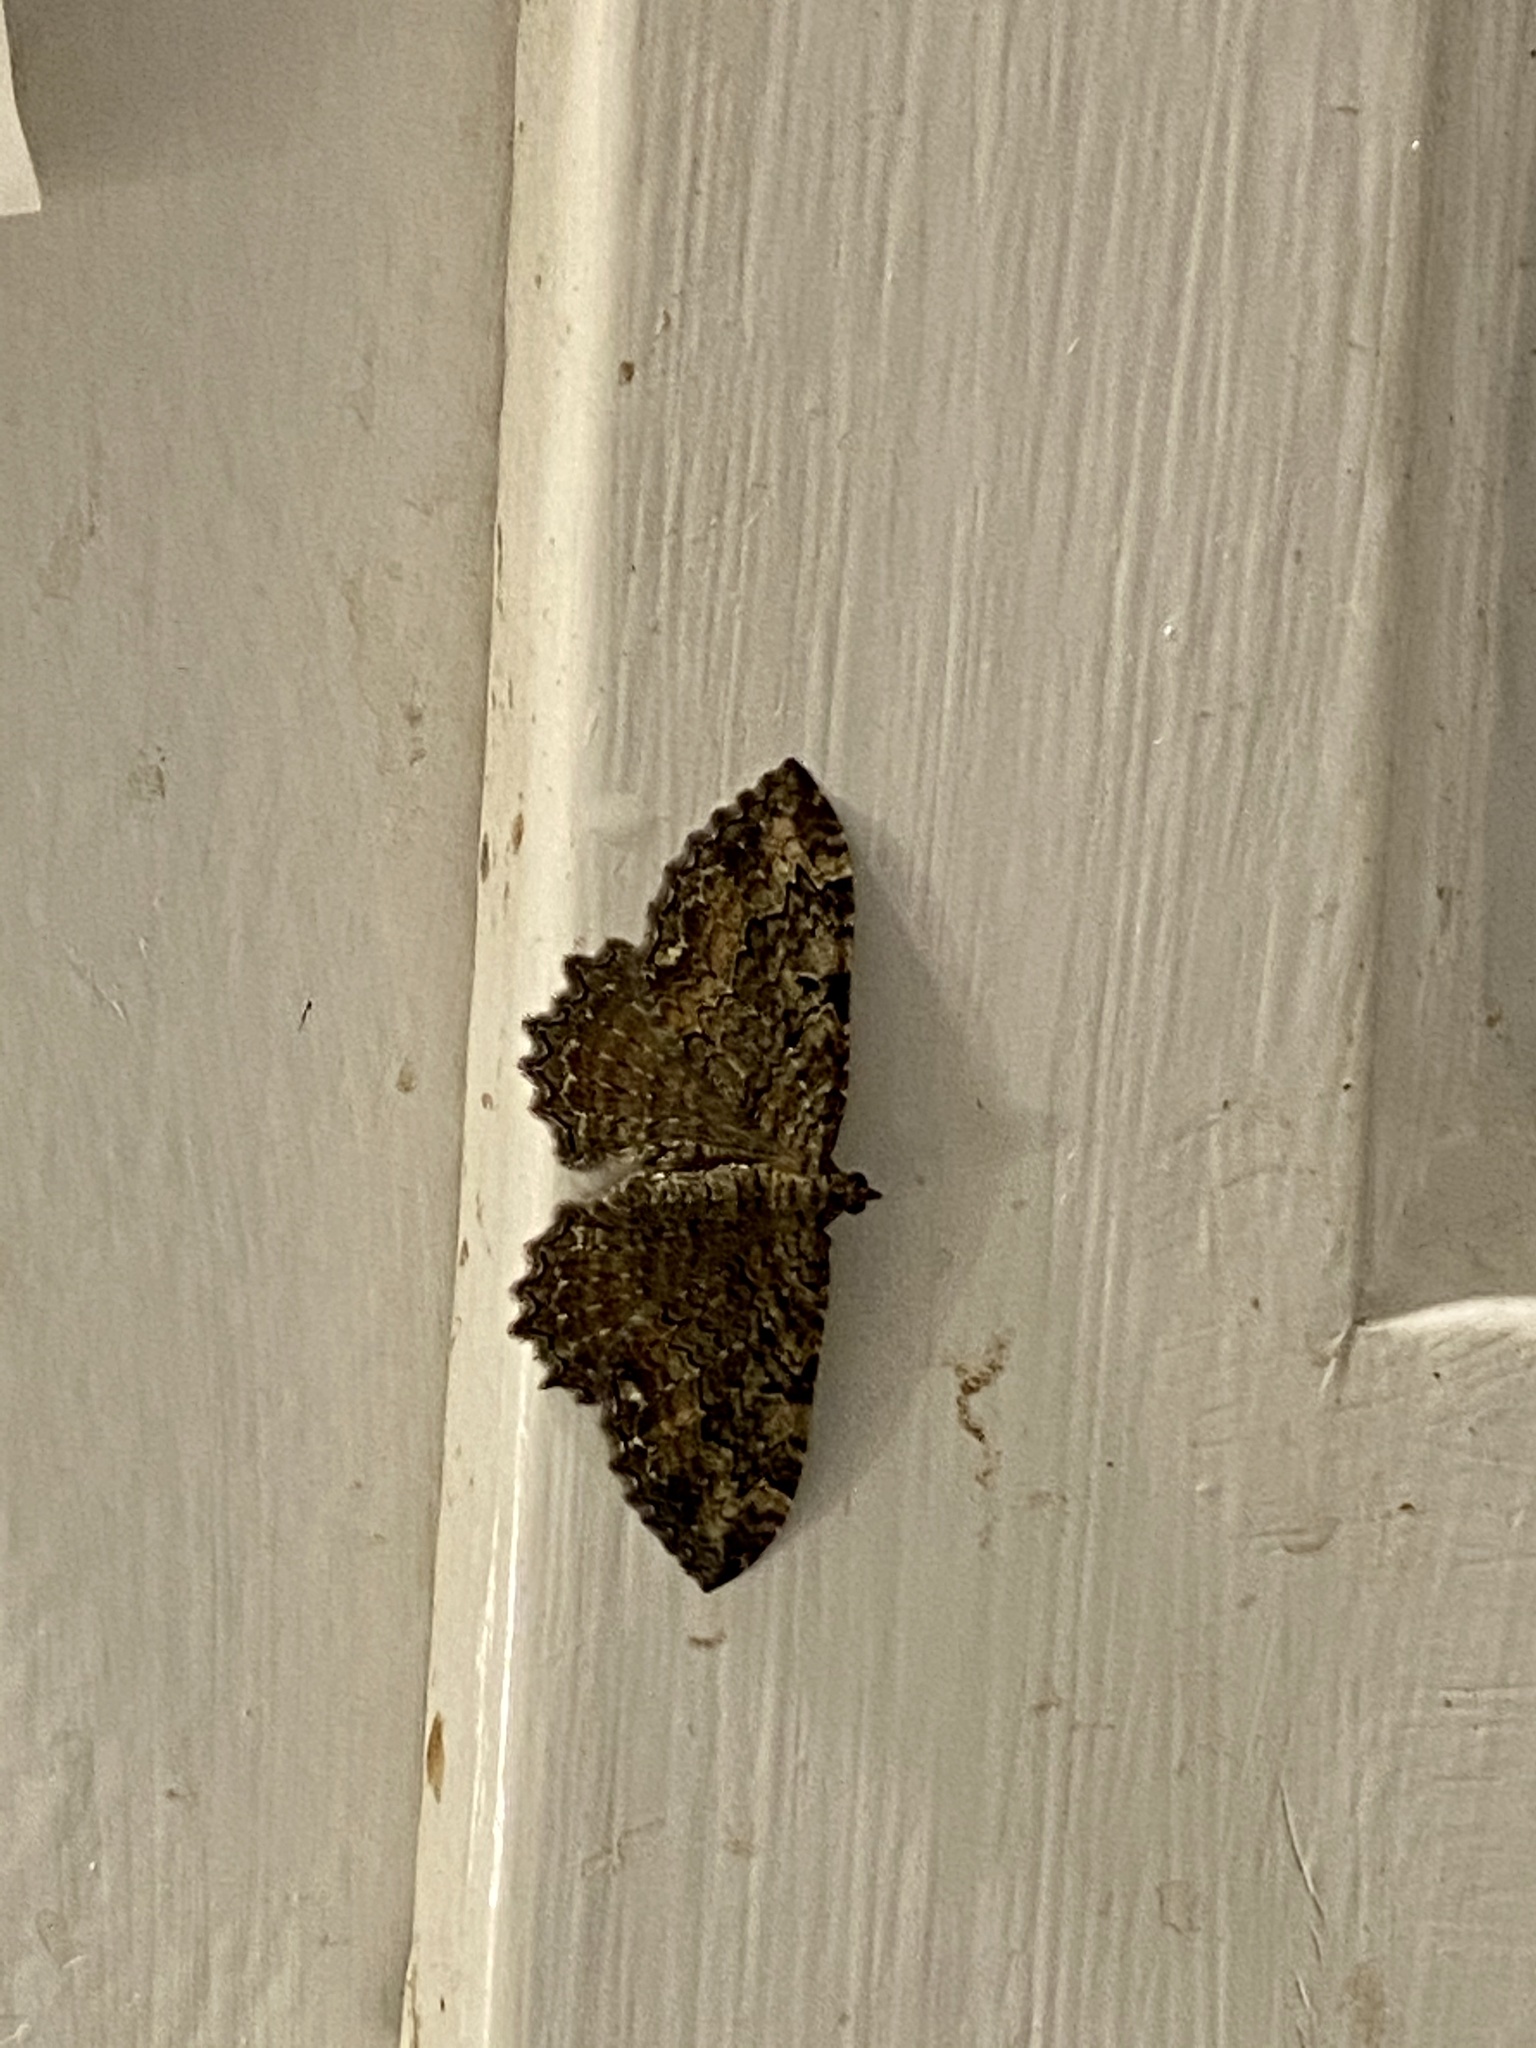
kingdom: Animalia
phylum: Arthropoda
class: Insecta
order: Lepidoptera
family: Geometridae
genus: Rheumaptera
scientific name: Rheumaptera
